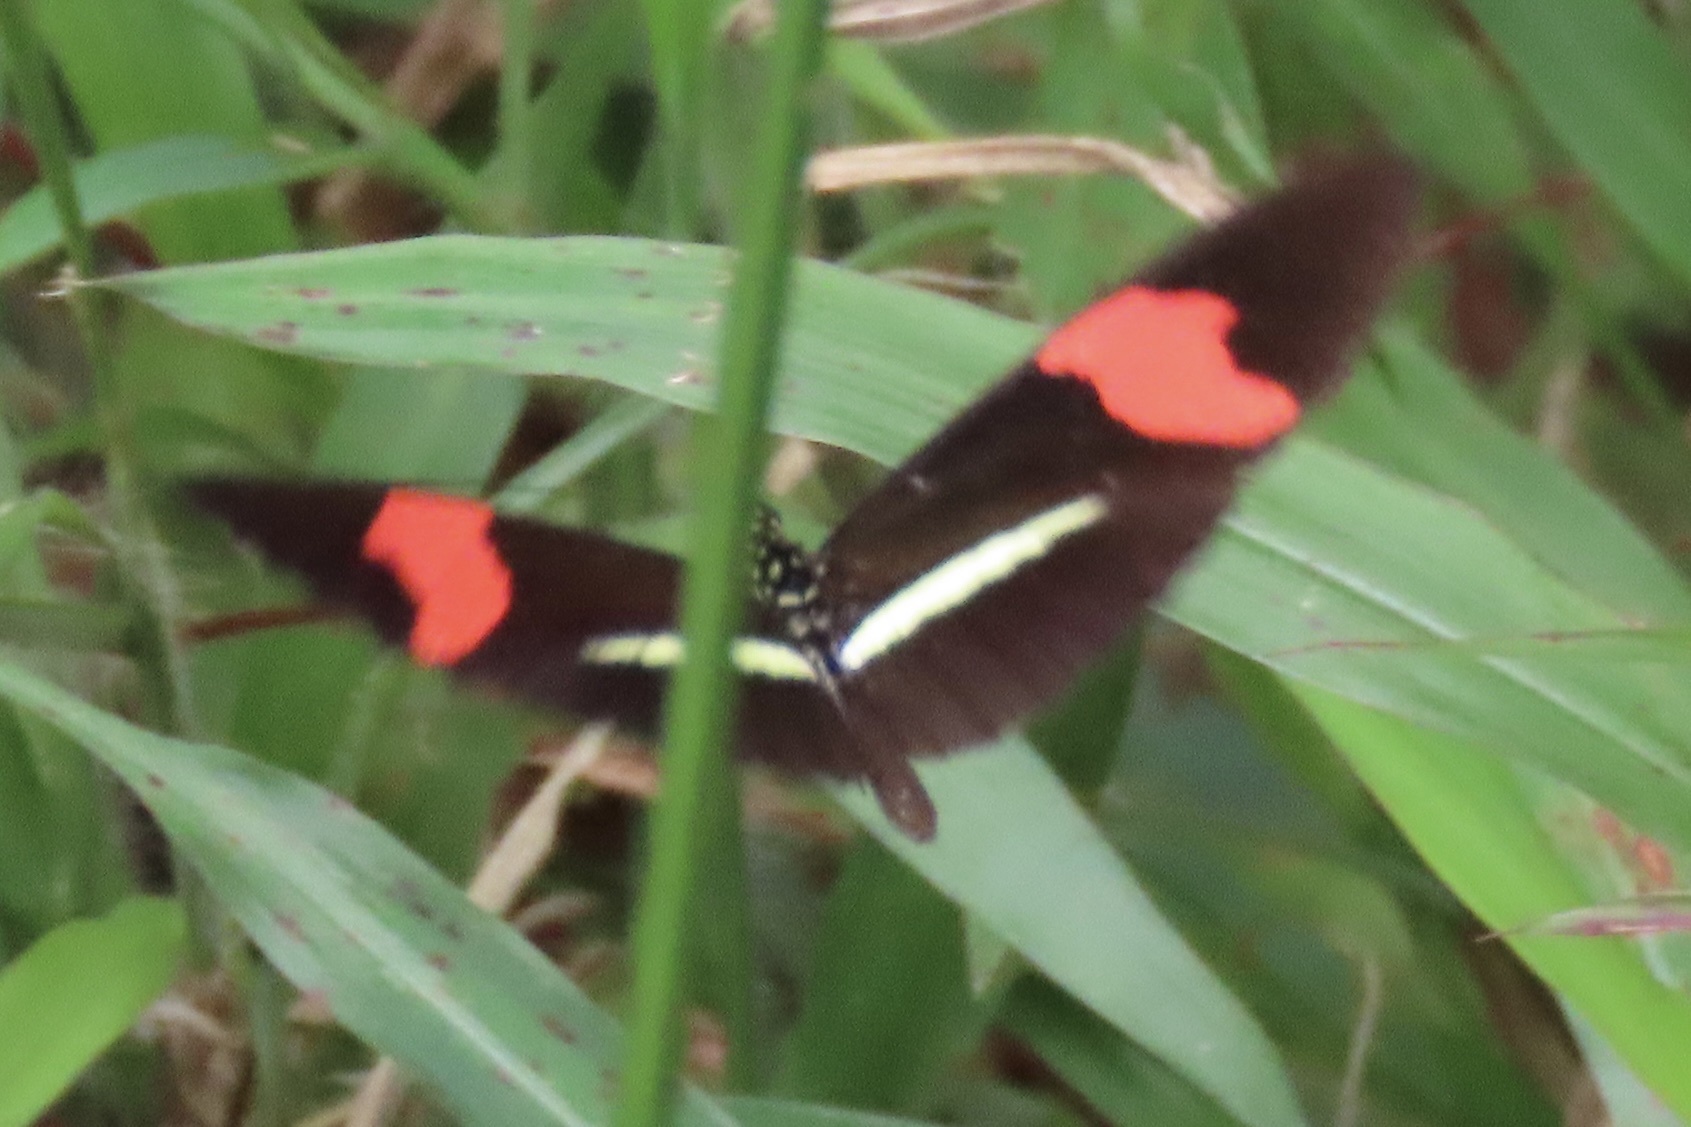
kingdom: Animalia
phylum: Arthropoda
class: Insecta
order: Lepidoptera
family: Nymphalidae
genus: Tirumala
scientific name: Tirumala petiverana
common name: Blue monarch
